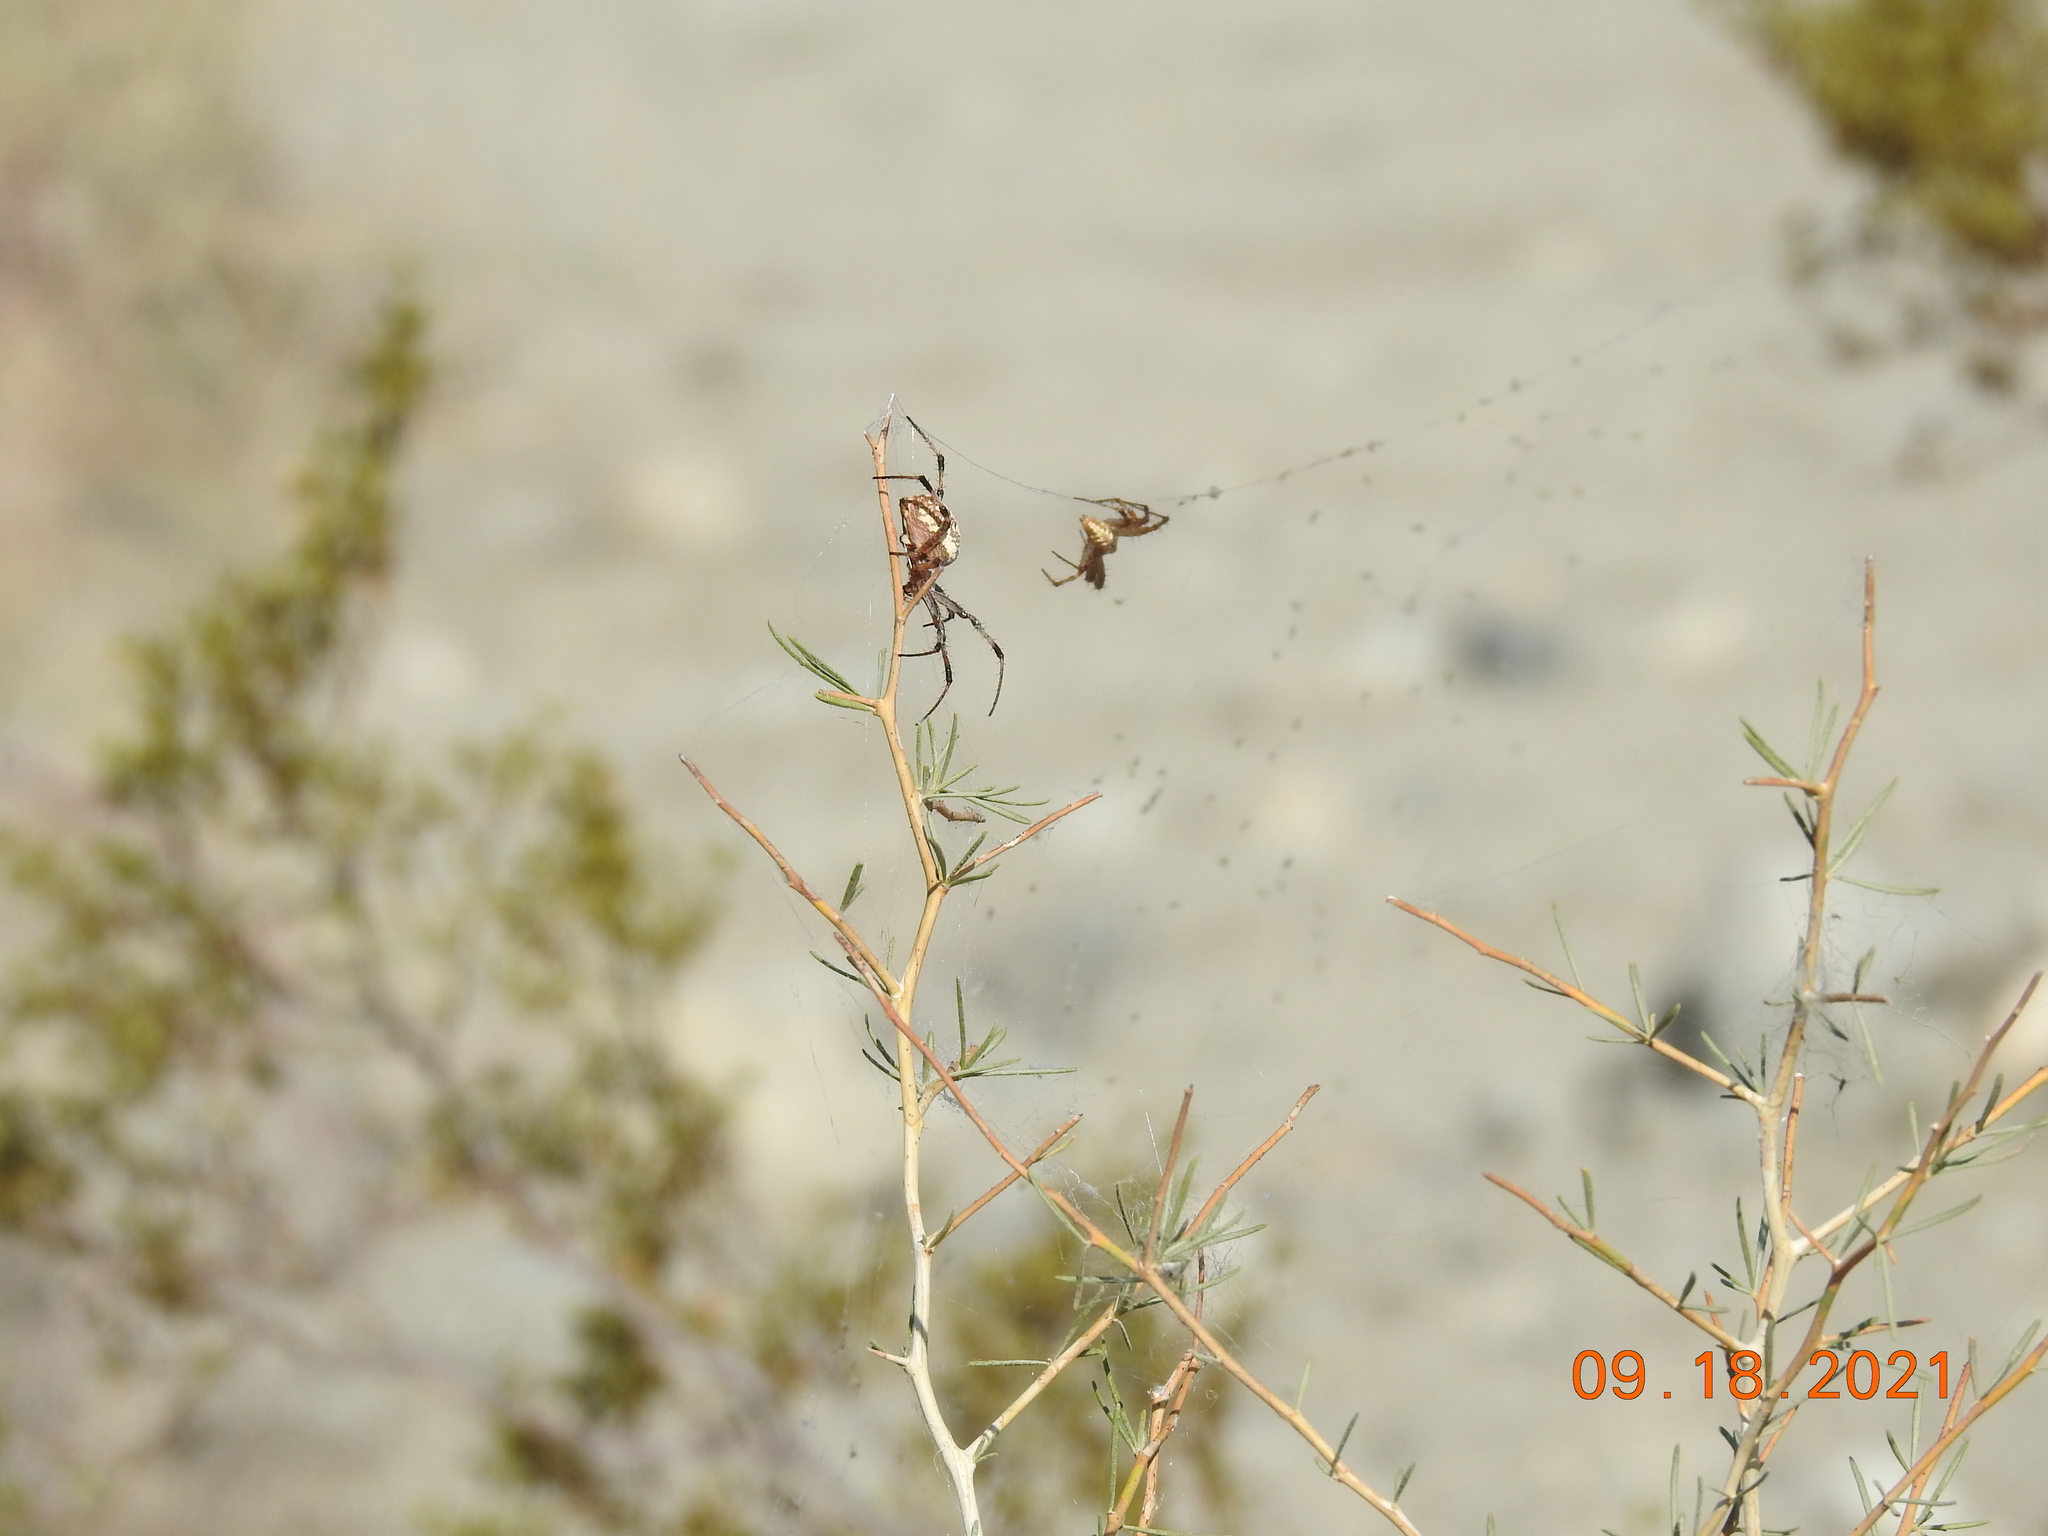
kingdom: Animalia
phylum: Arthropoda
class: Arachnida
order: Araneae
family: Araneidae
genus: Neoscona
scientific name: Neoscona oaxacensis
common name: Orb weavers
